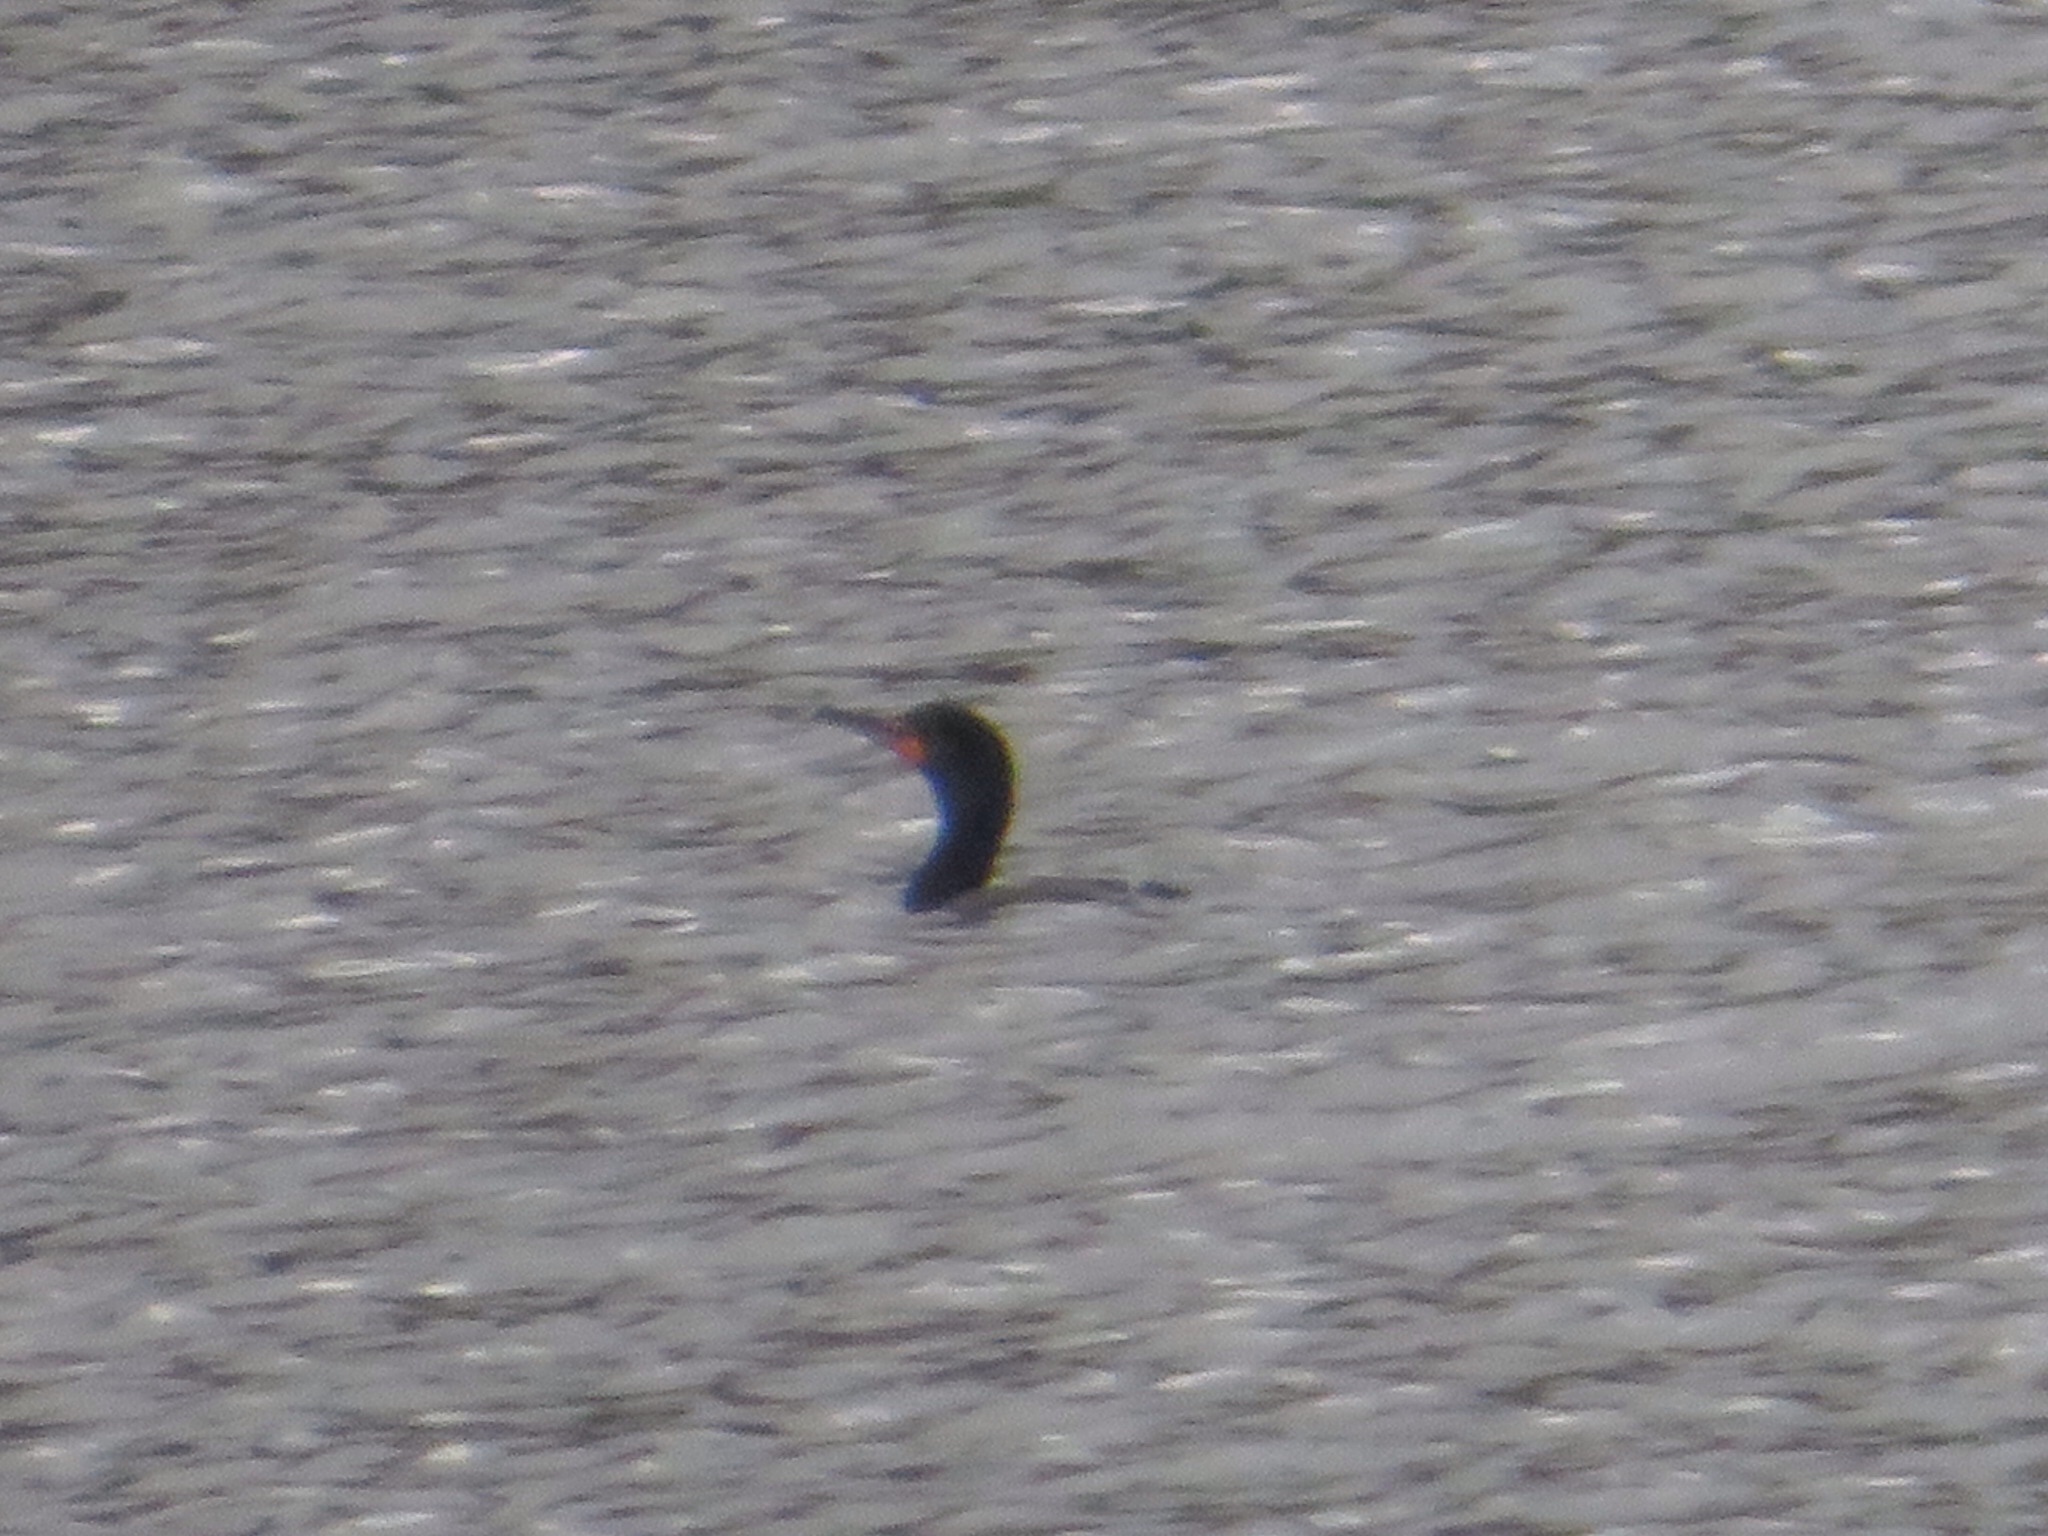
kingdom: Animalia
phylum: Chordata
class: Aves
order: Suliformes
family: Phalacrocoracidae
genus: Phalacrocorax
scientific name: Phalacrocorax auritus
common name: Double-crested cormorant
